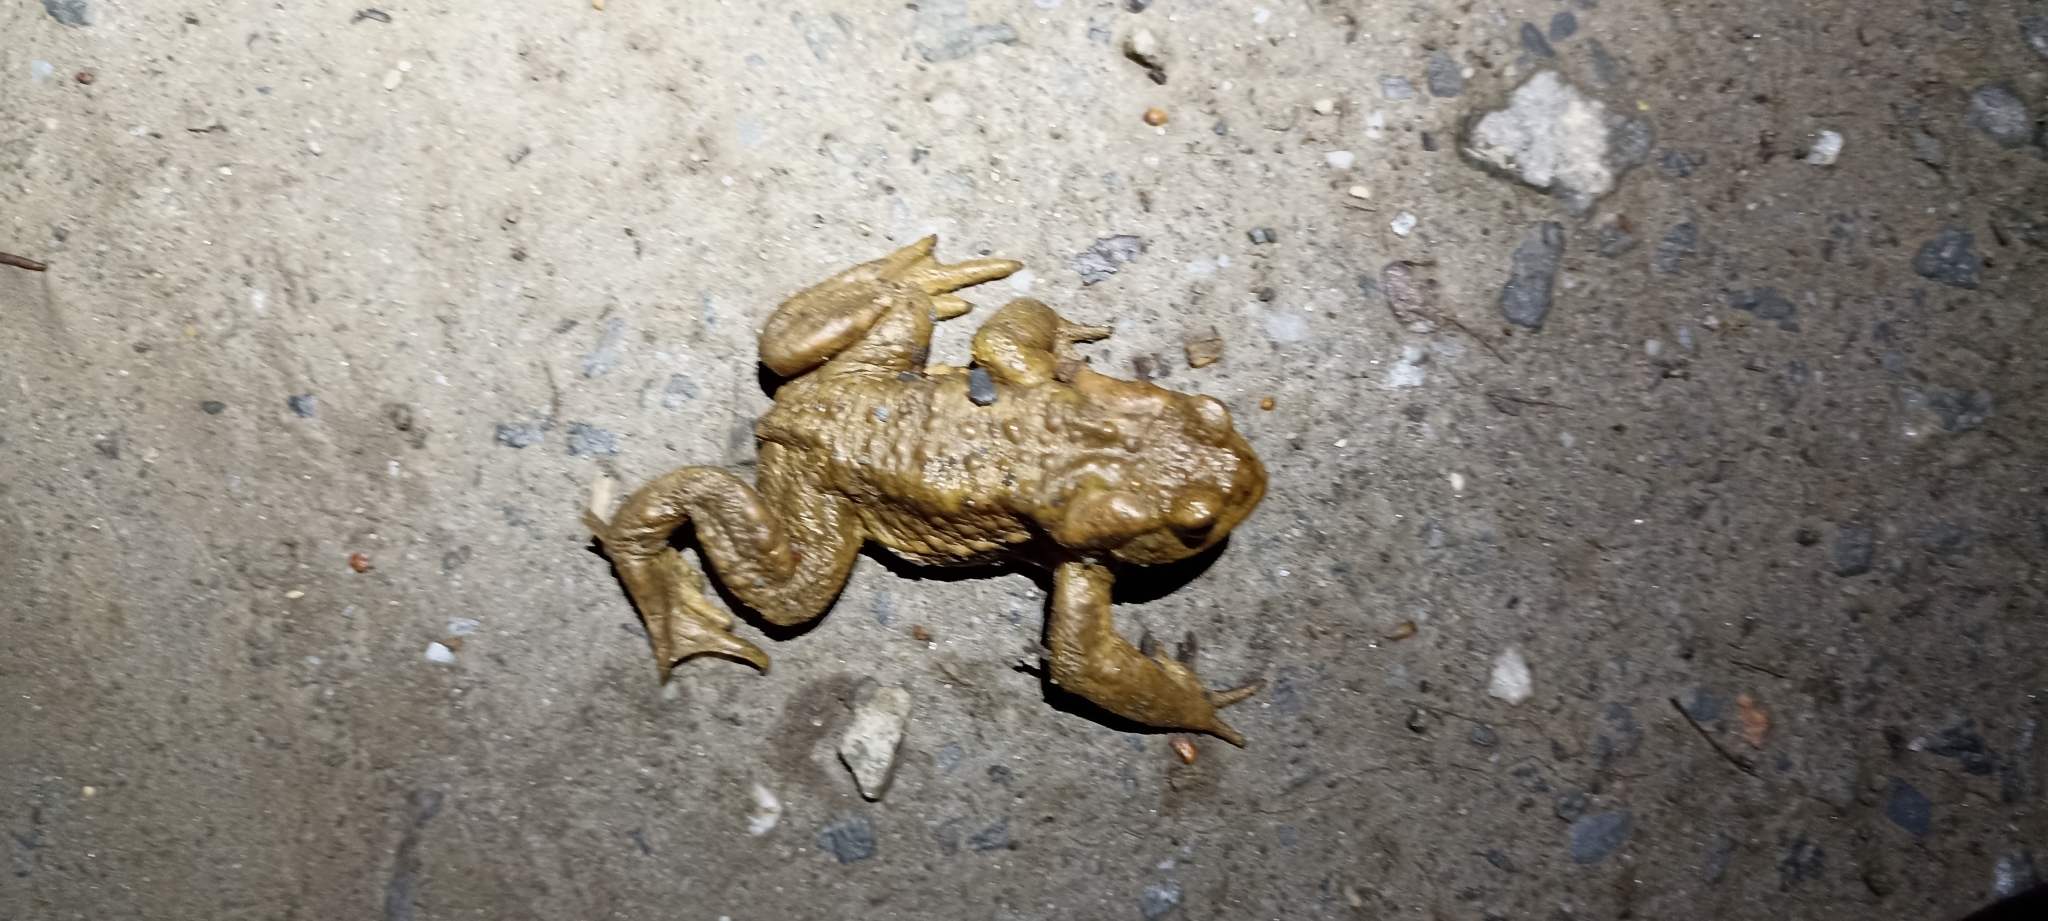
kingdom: Animalia
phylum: Chordata
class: Amphibia
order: Anura
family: Bufonidae
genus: Bufo
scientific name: Bufo spinosus
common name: Western common toad
